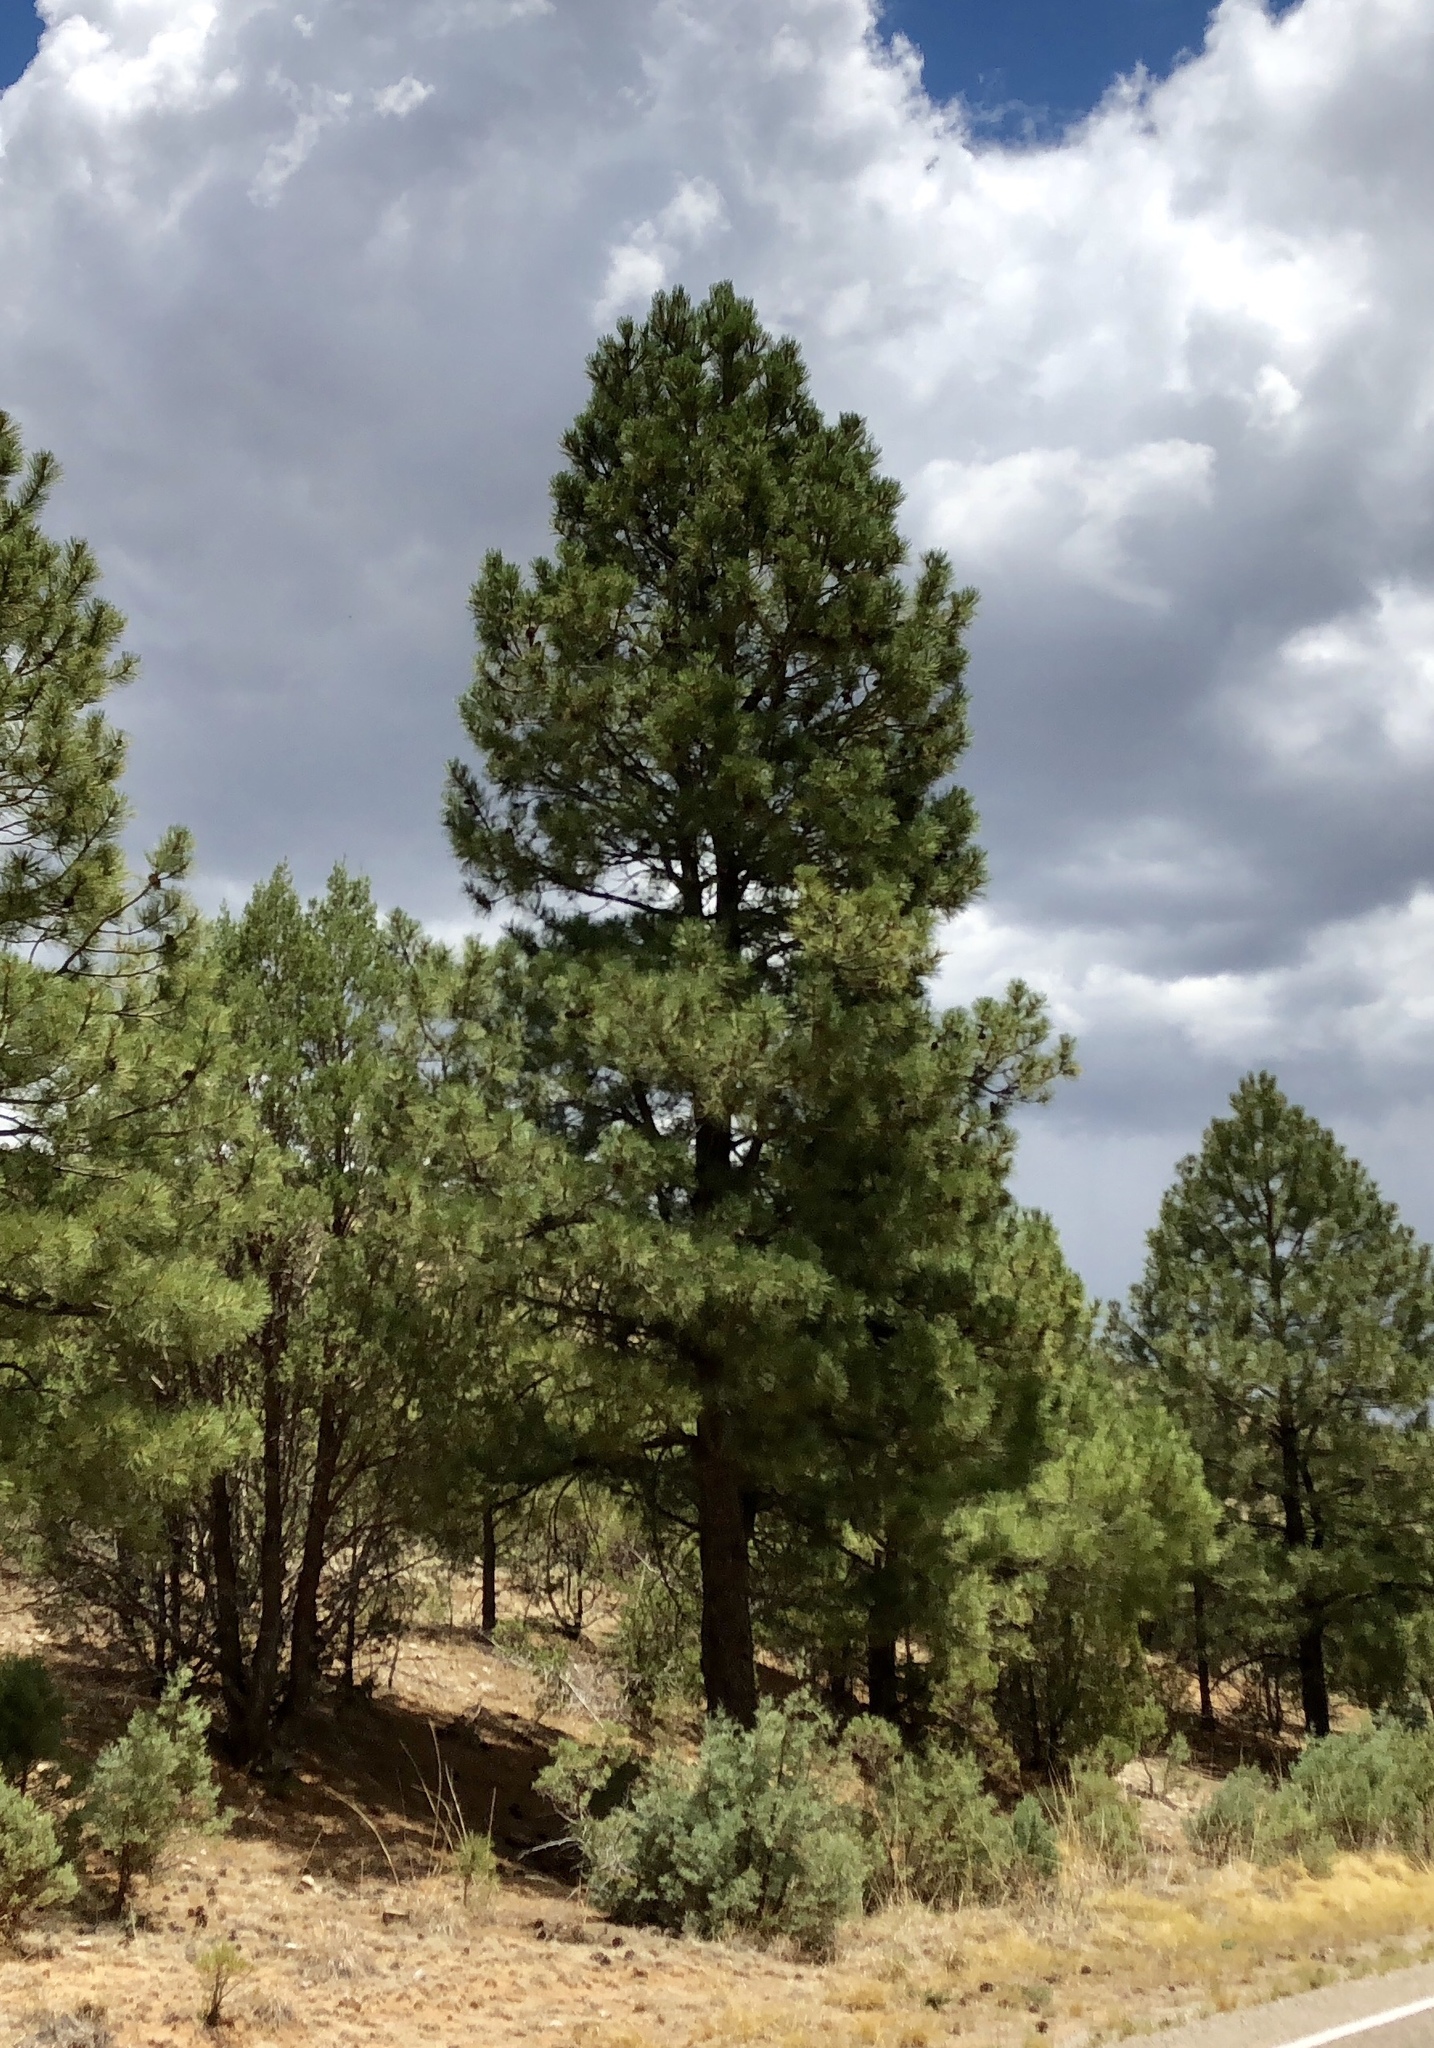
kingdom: Plantae
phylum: Tracheophyta
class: Pinopsida
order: Pinales
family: Pinaceae
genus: Pinus
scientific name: Pinus ponderosa
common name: Western yellow-pine
